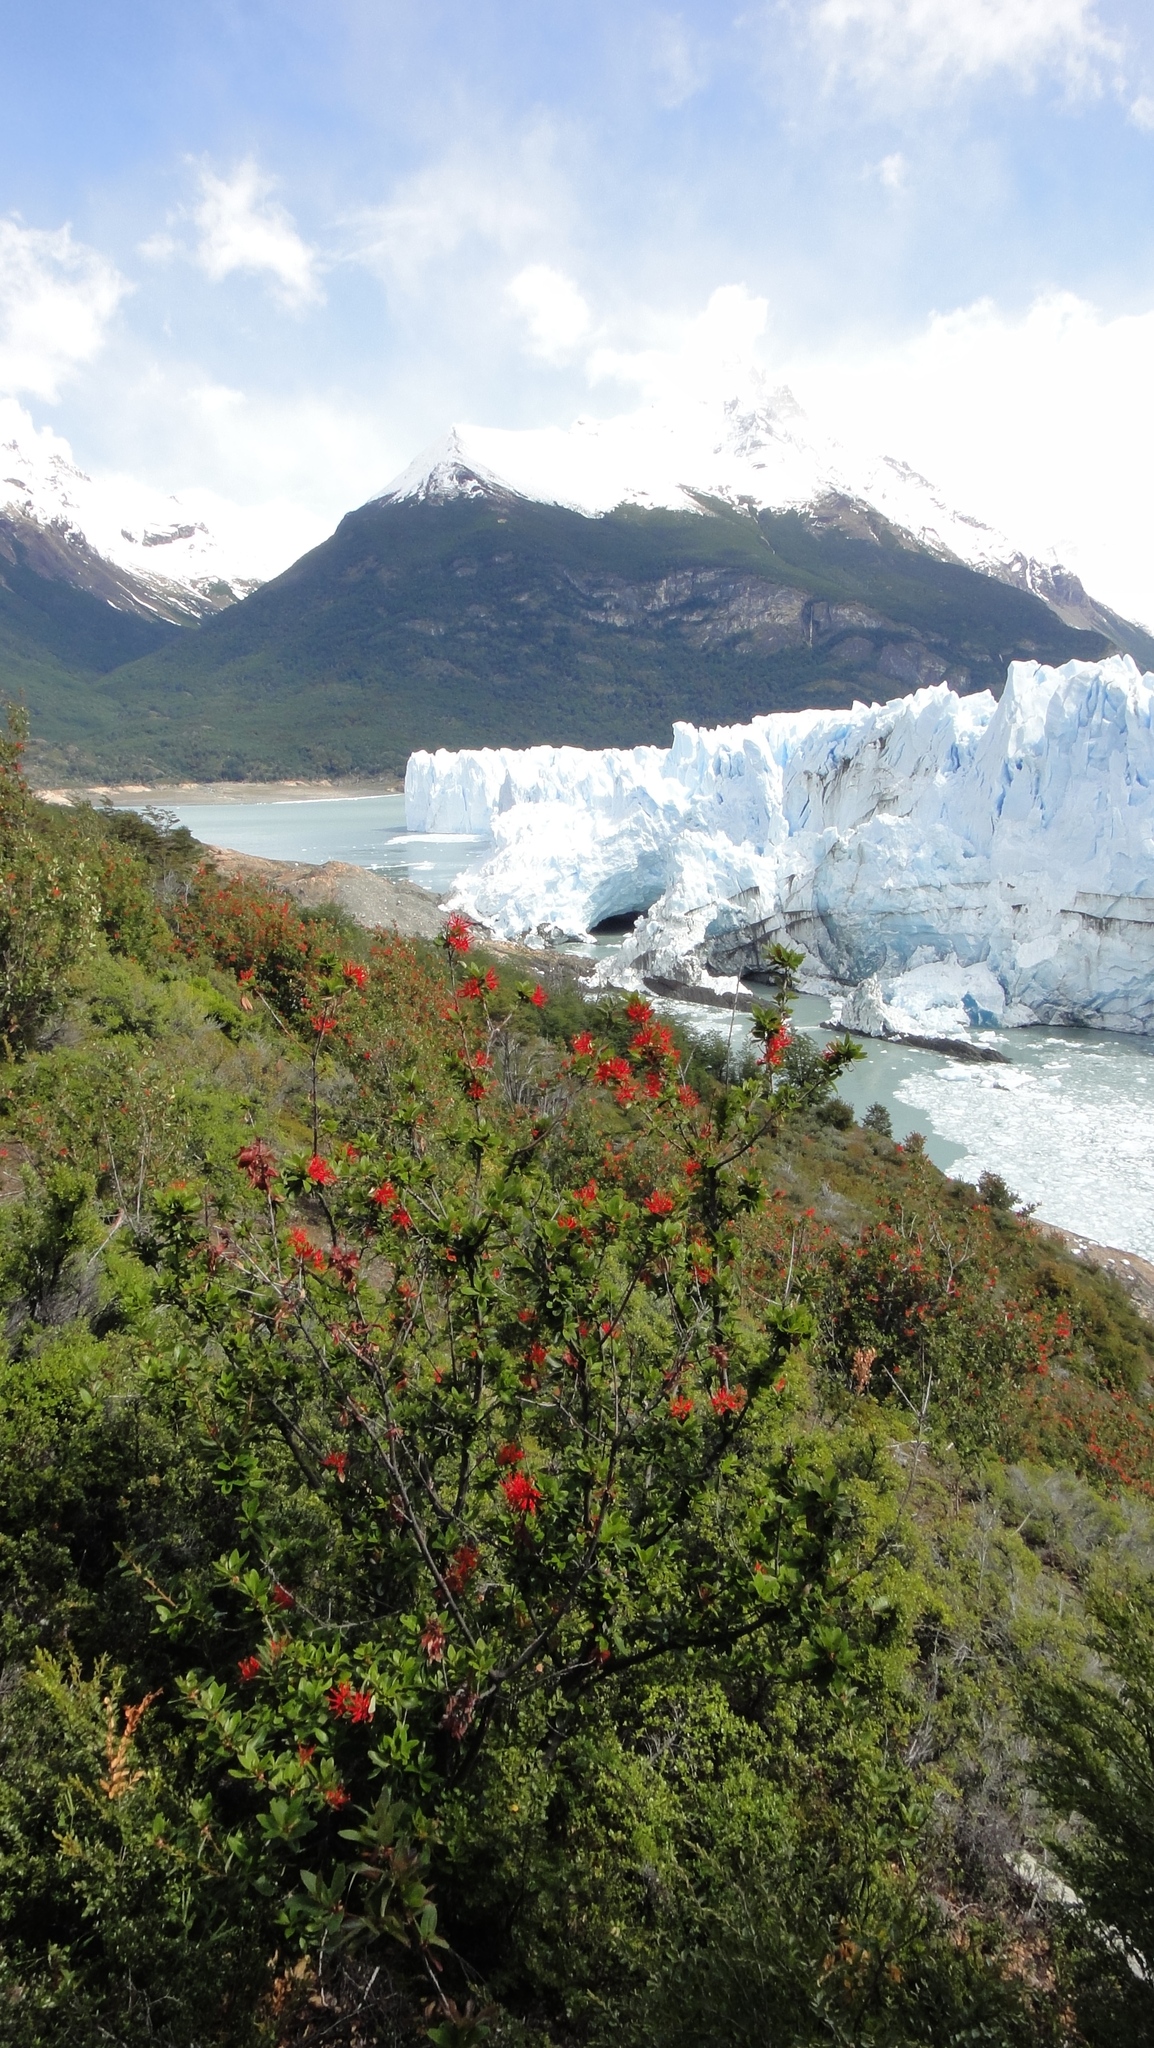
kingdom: Plantae
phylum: Tracheophyta
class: Magnoliopsida
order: Proteales
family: Proteaceae
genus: Embothrium
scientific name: Embothrium coccineum
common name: Chilean firebush
